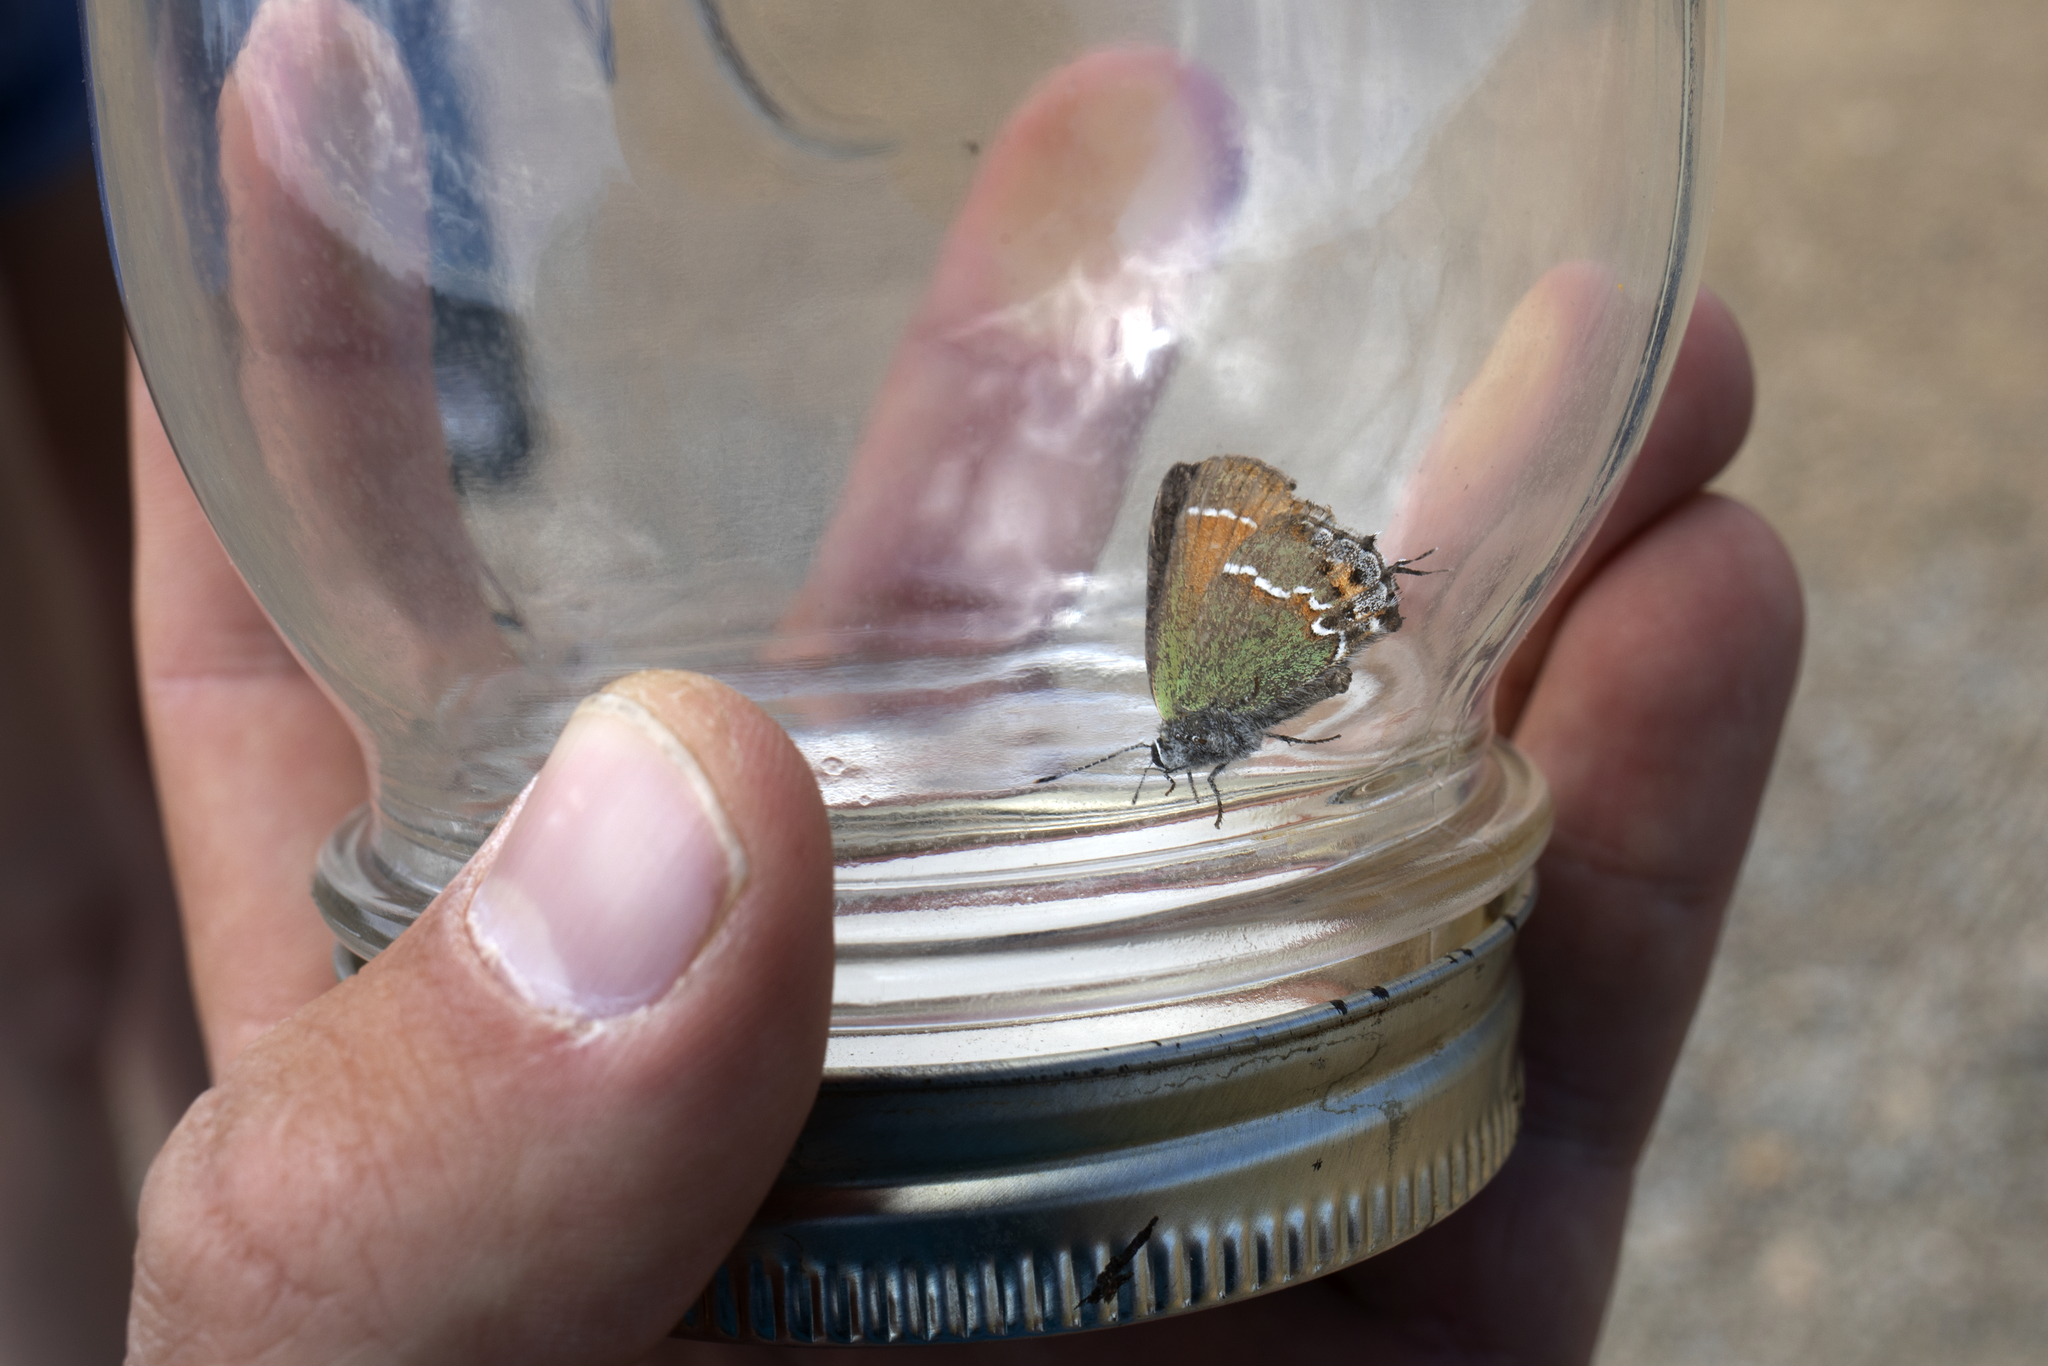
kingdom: Animalia
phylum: Arthropoda
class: Insecta
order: Lepidoptera
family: Lycaenidae
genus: Mitoura
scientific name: Mitoura gryneus
